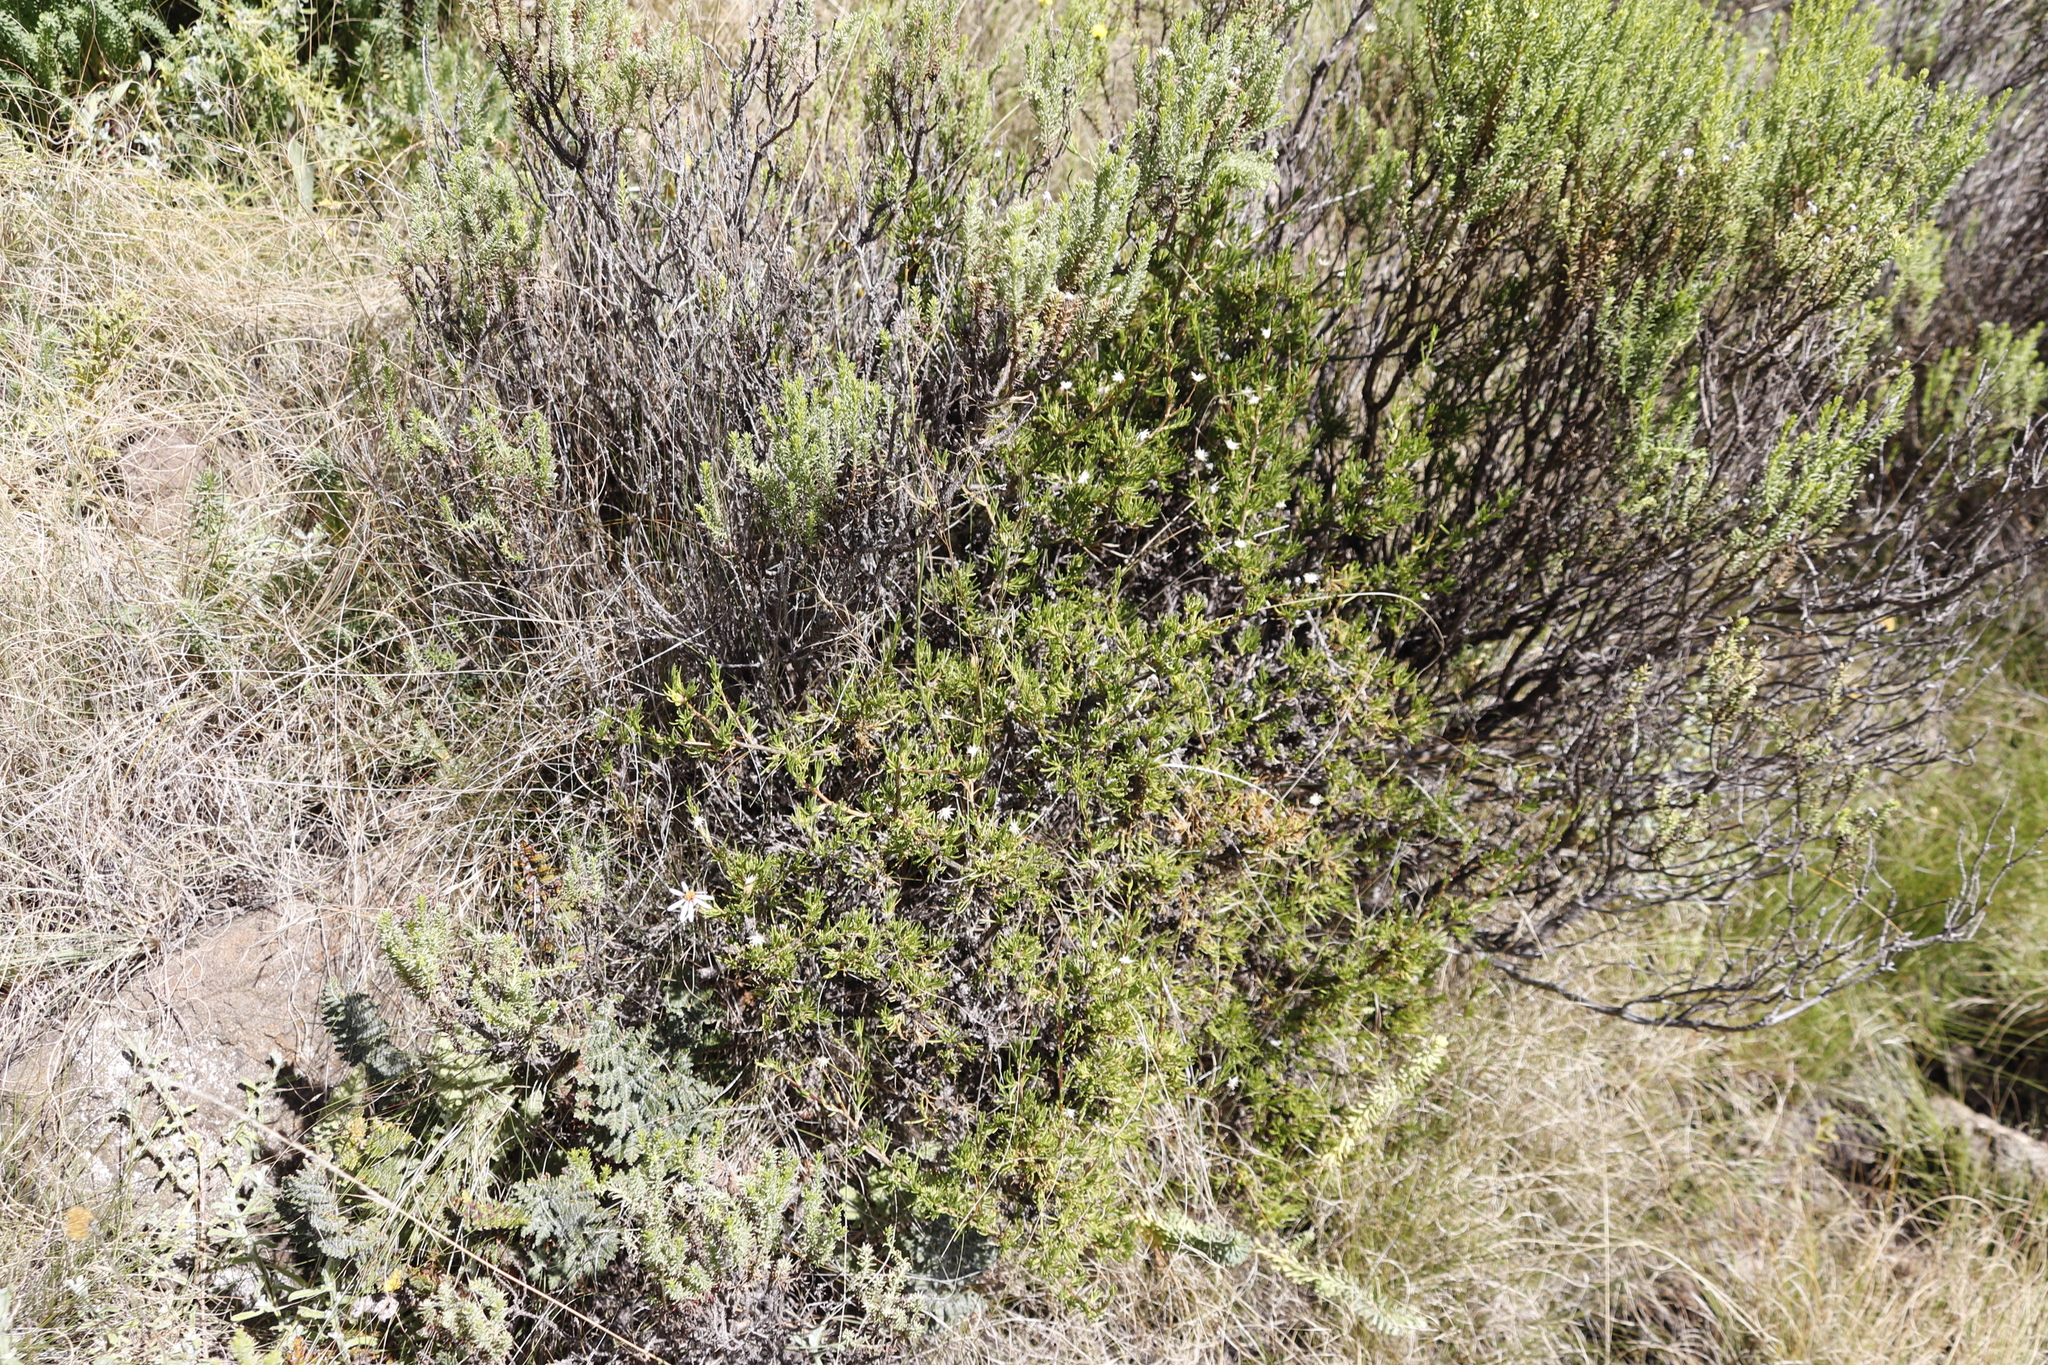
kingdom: Plantae
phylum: Tracheophyta
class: Magnoliopsida
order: Asterales
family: Asteraceae
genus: Felicia
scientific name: Felicia filifolia
